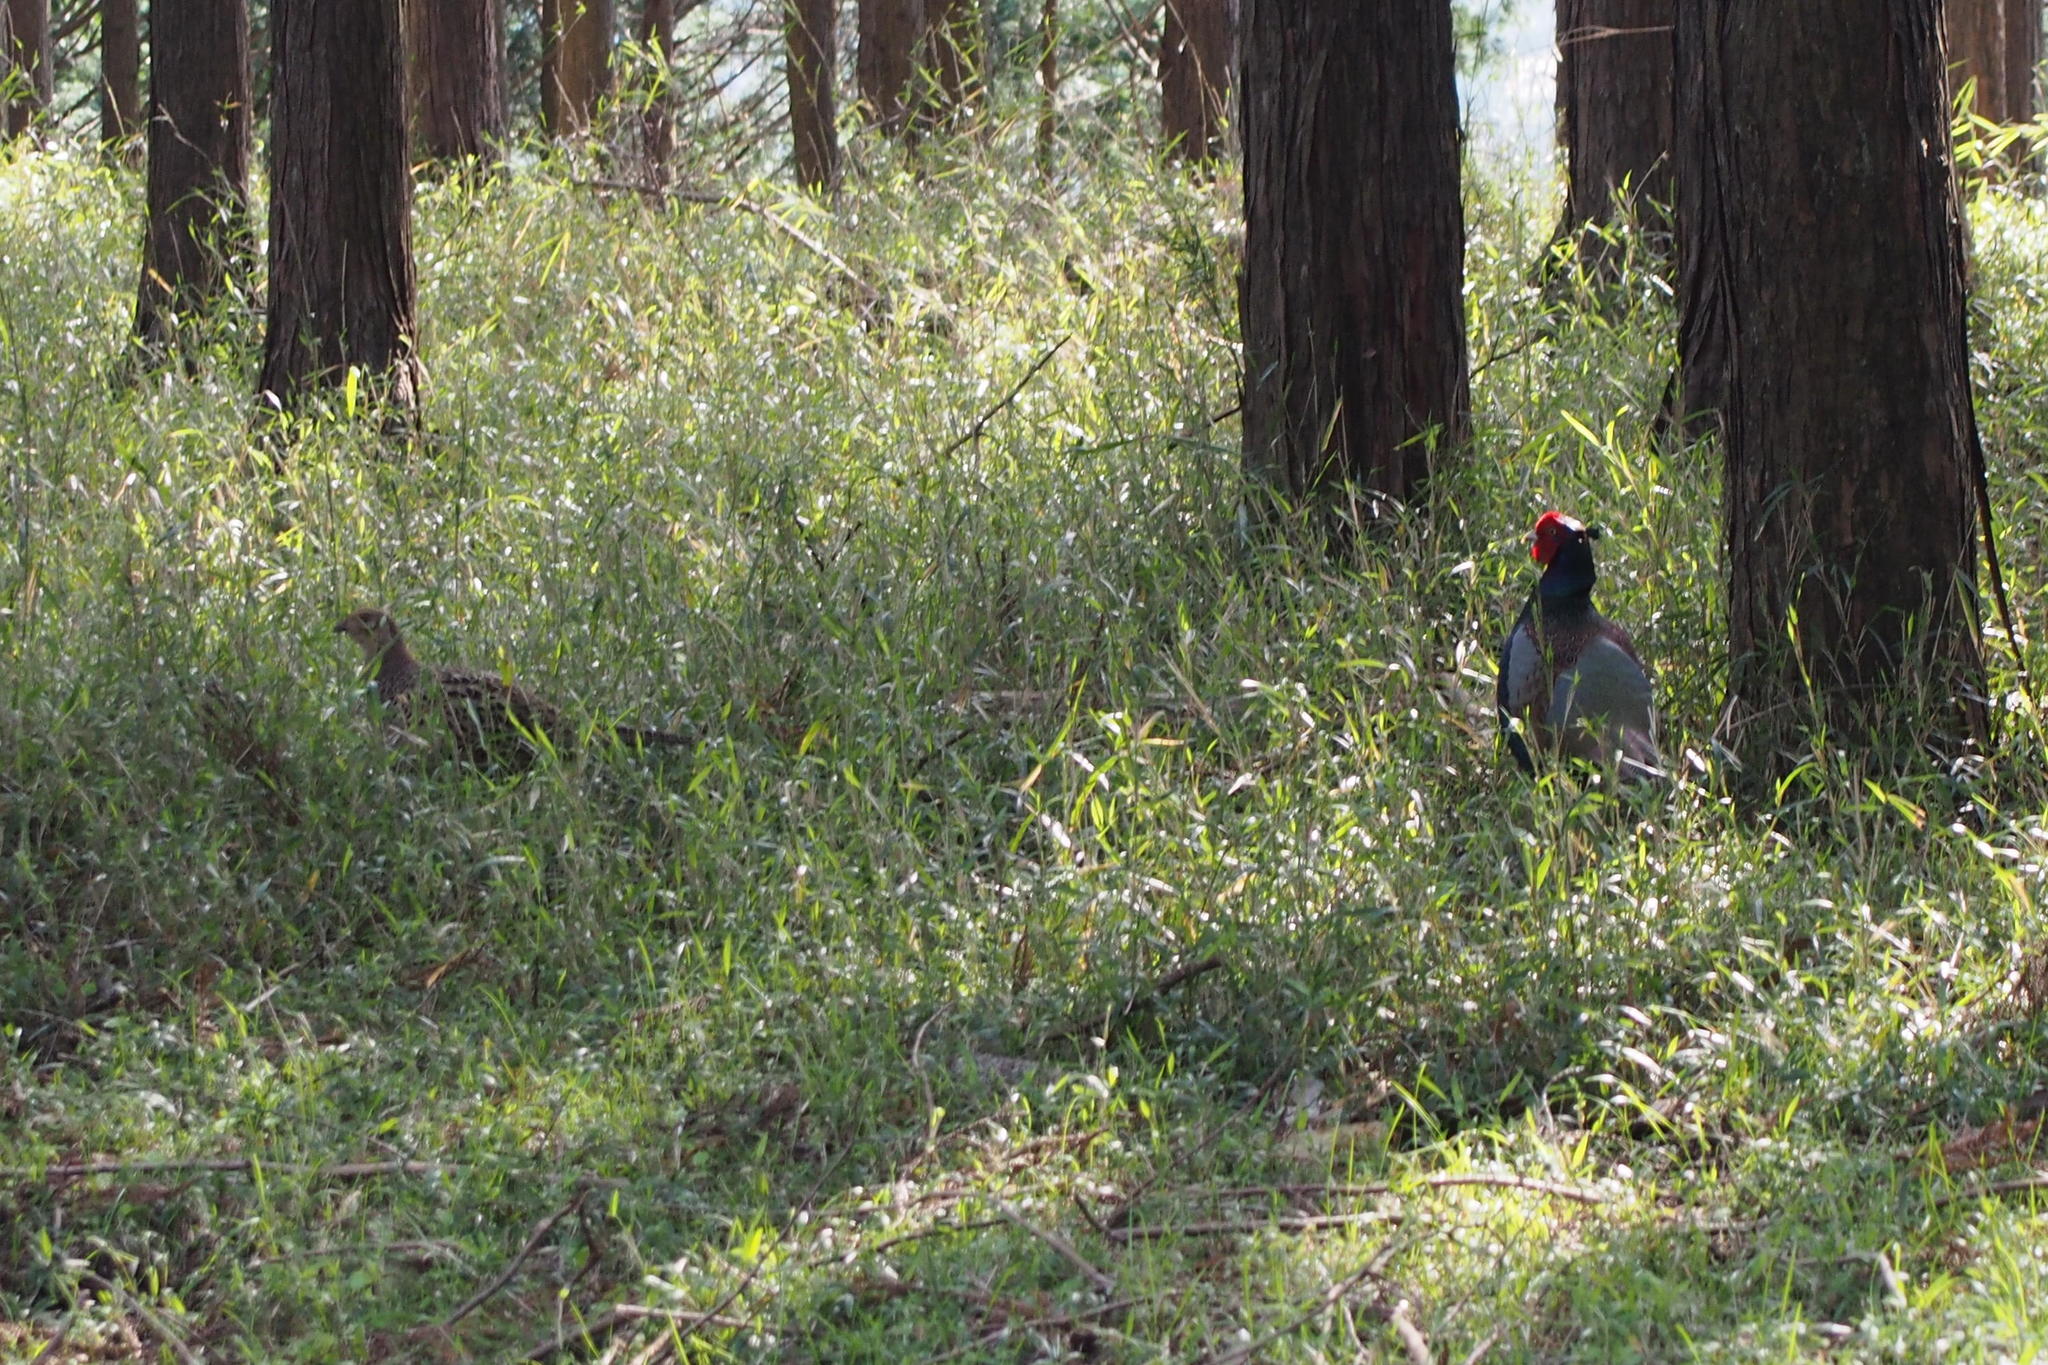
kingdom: Animalia
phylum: Chordata
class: Aves
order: Galliformes
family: Phasianidae
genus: Phasianus
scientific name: Phasianus versicolor
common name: Green pheasant
